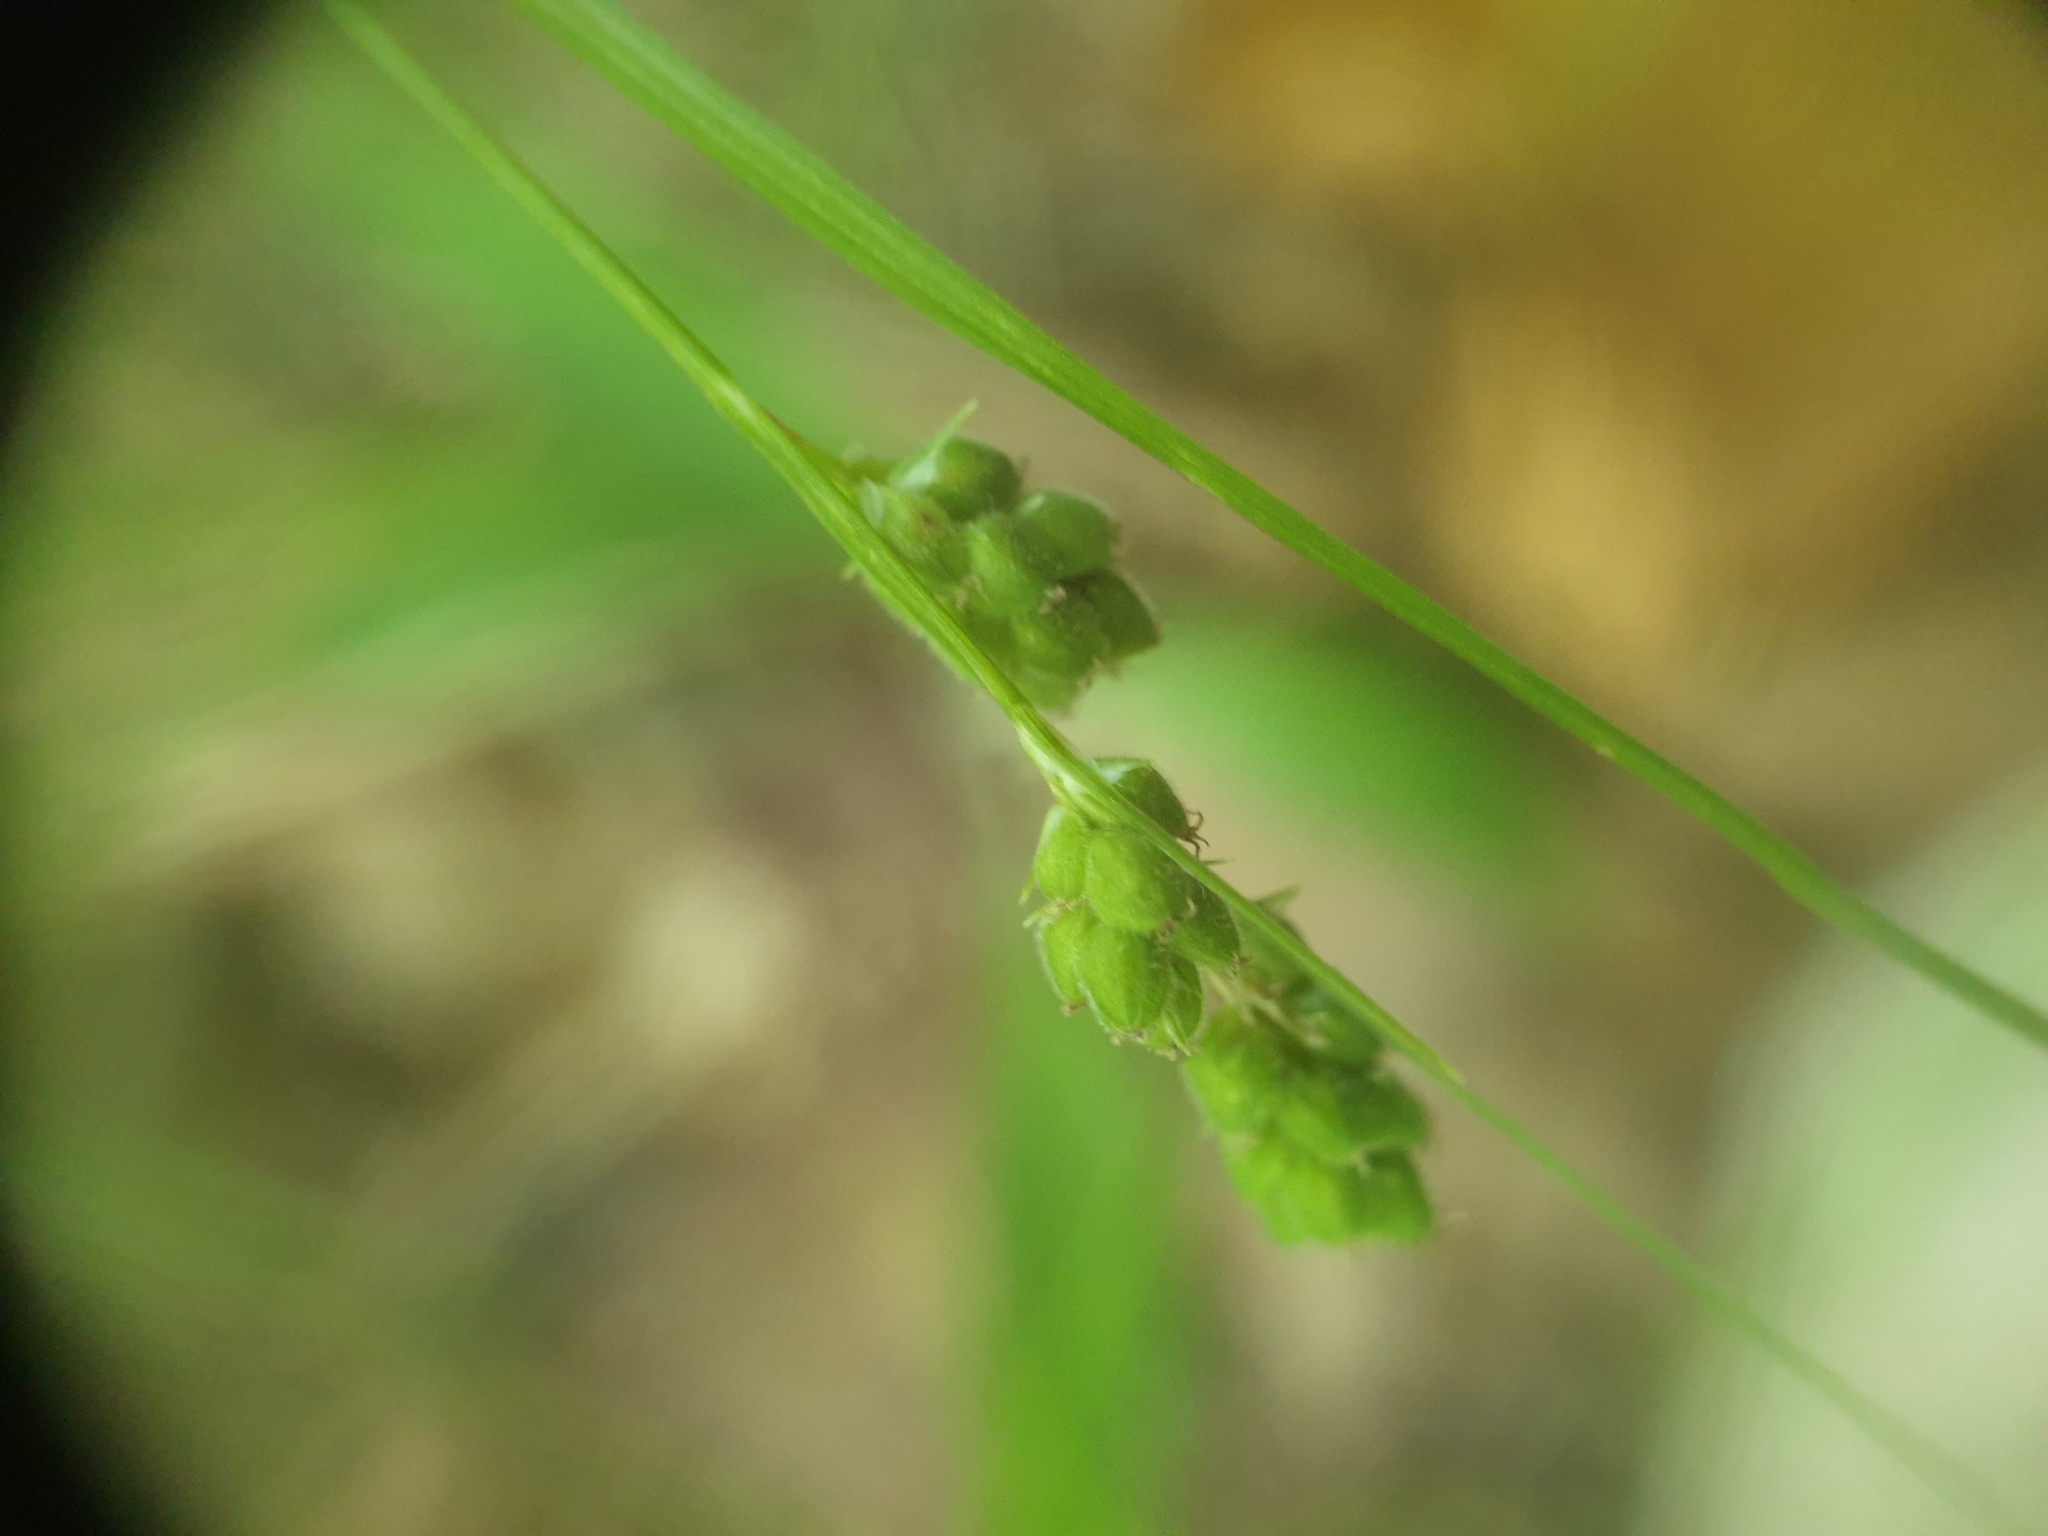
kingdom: Plantae
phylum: Tracheophyta
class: Liliopsida
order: Poales
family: Cyperaceae
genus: Carex
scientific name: Carex swanii
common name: Downy green sedge
